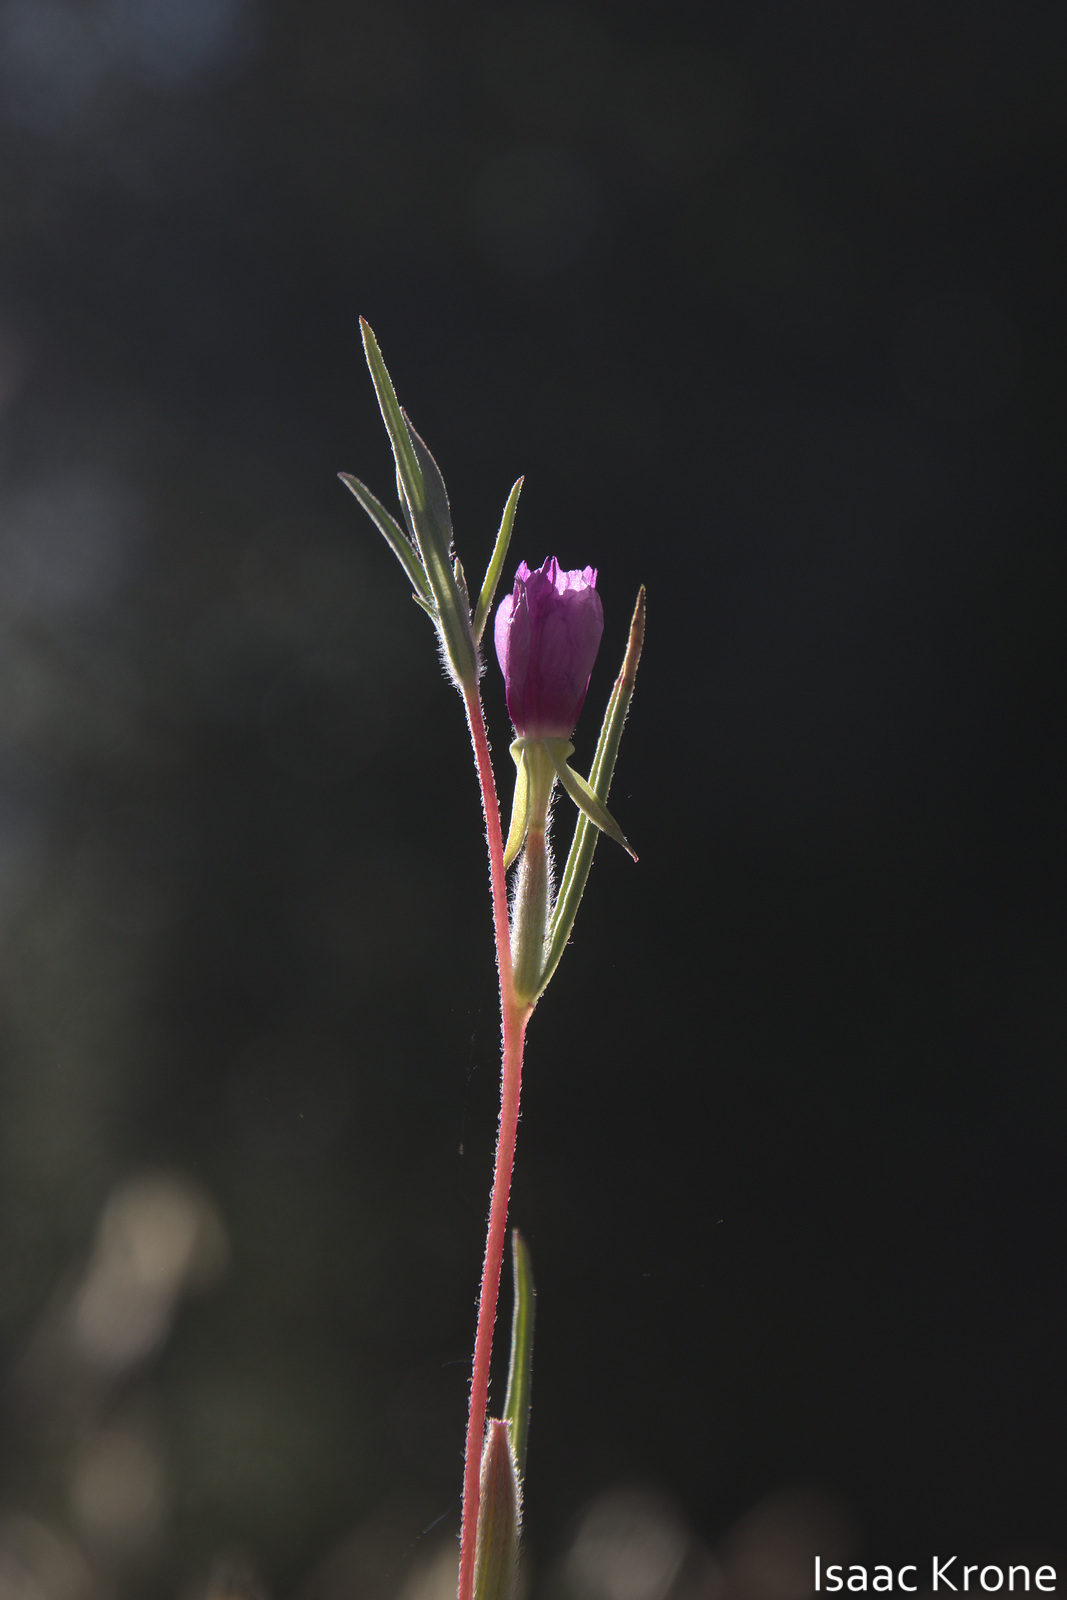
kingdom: Plantae
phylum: Tracheophyta
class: Magnoliopsida
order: Myrtales
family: Onagraceae
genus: Clarkia
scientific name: Clarkia purpurea
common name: Purple clarkia
